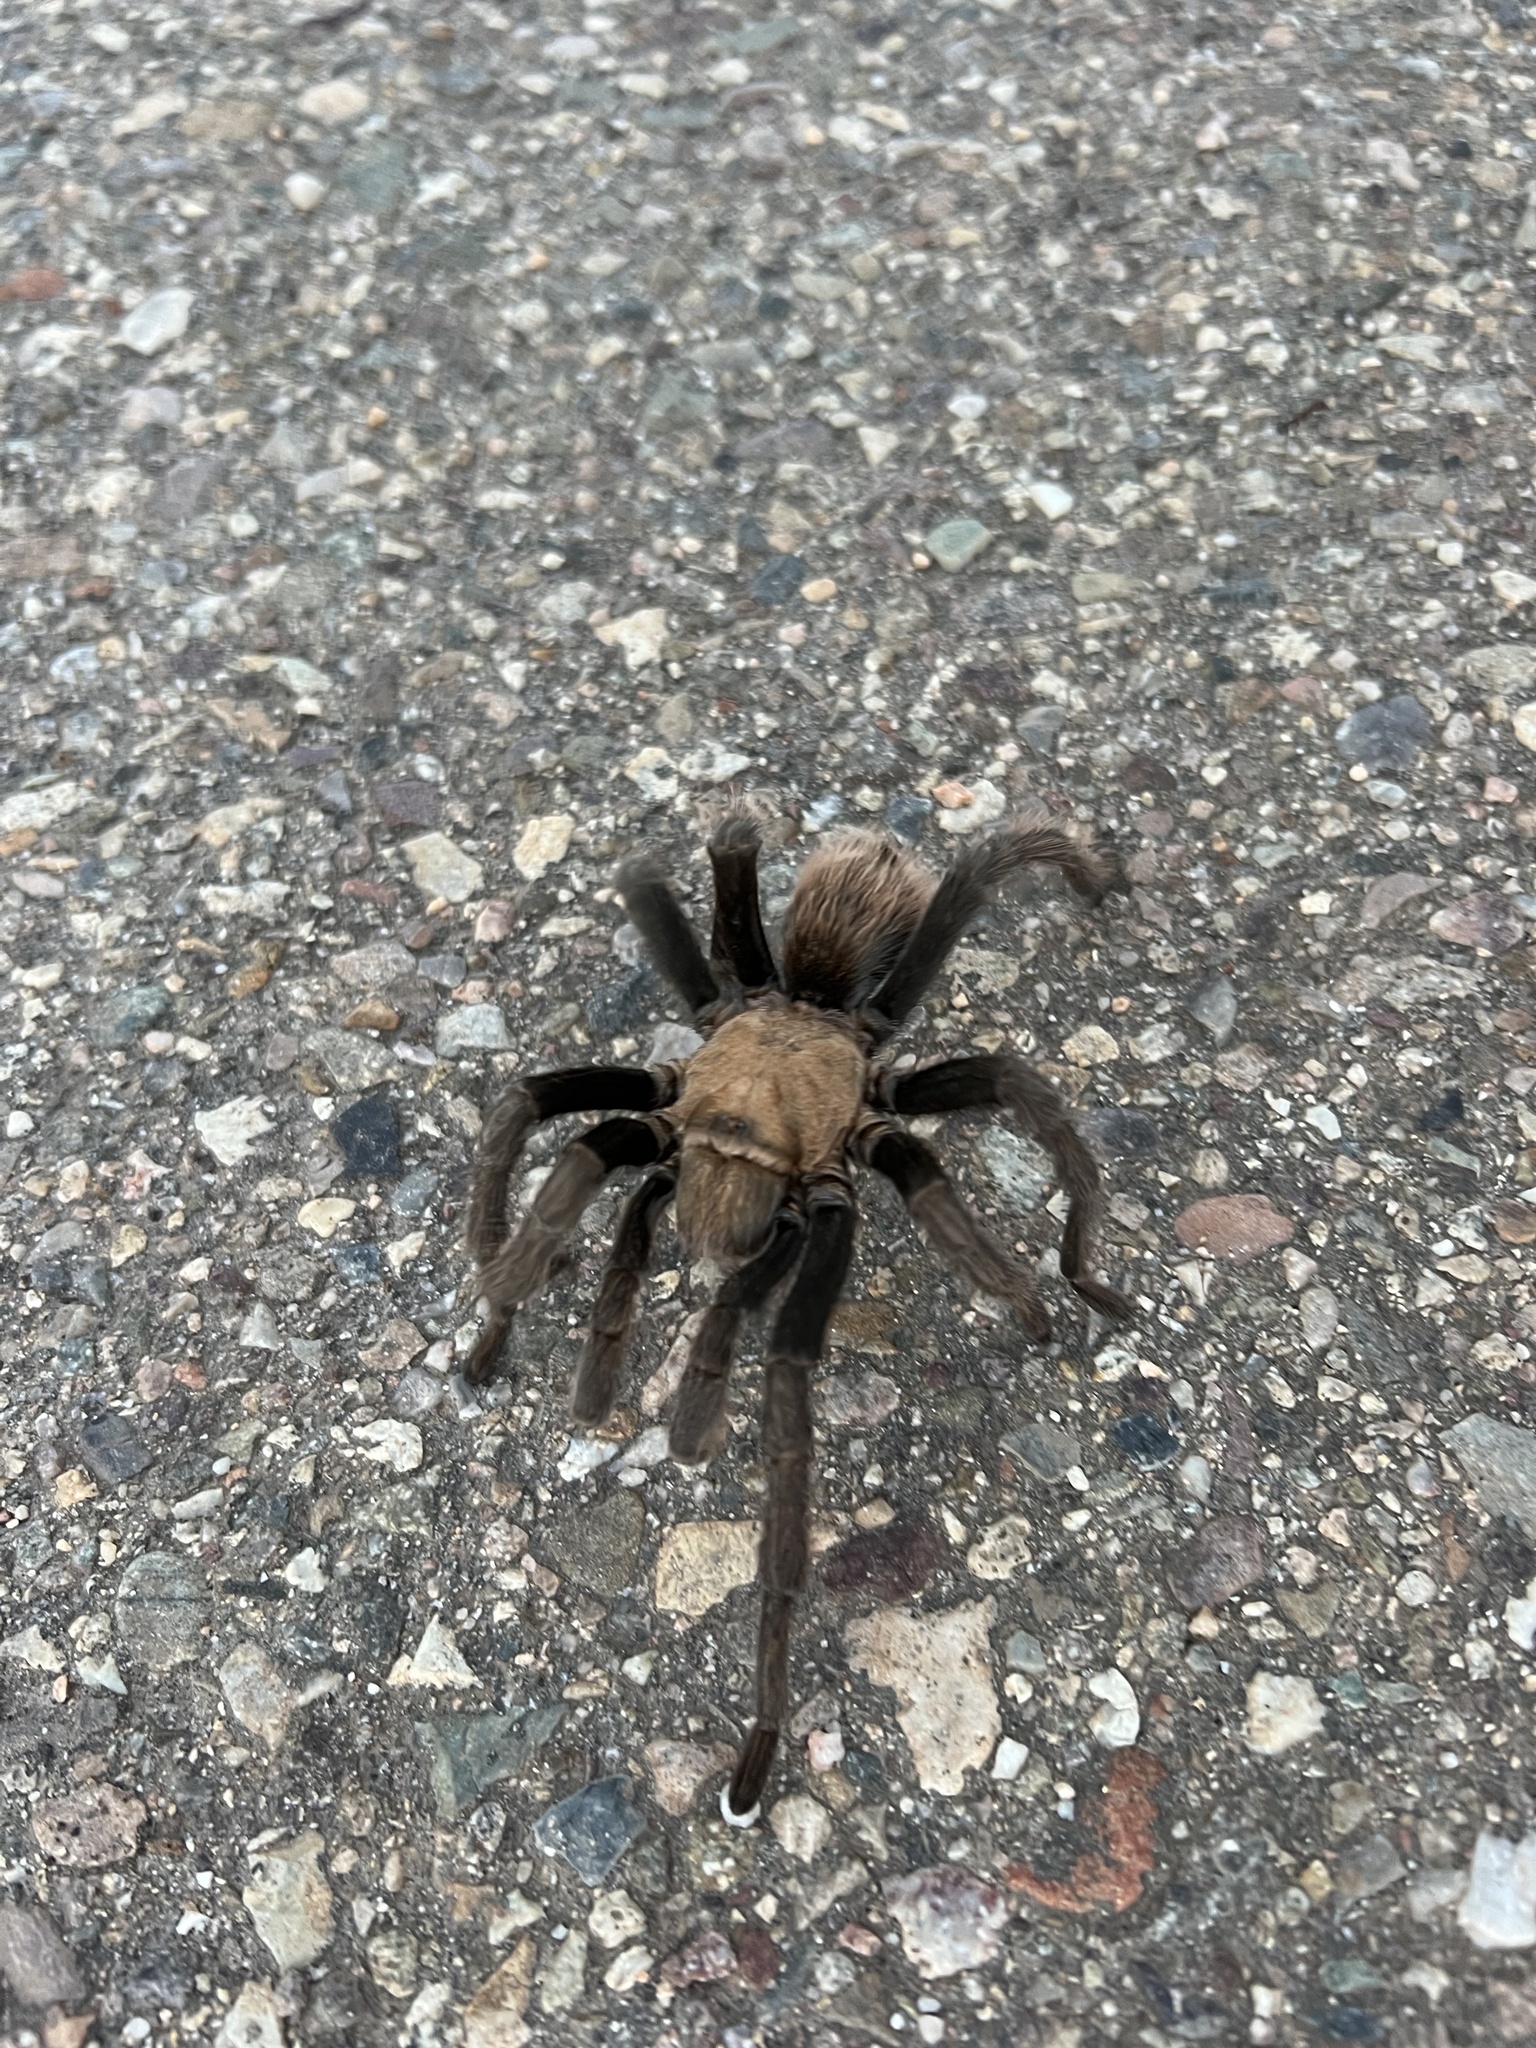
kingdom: Animalia
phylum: Arthropoda
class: Arachnida
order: Araneae
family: Theraphosidae
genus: Aphonopelma
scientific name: Aphonopelma chalcodes
